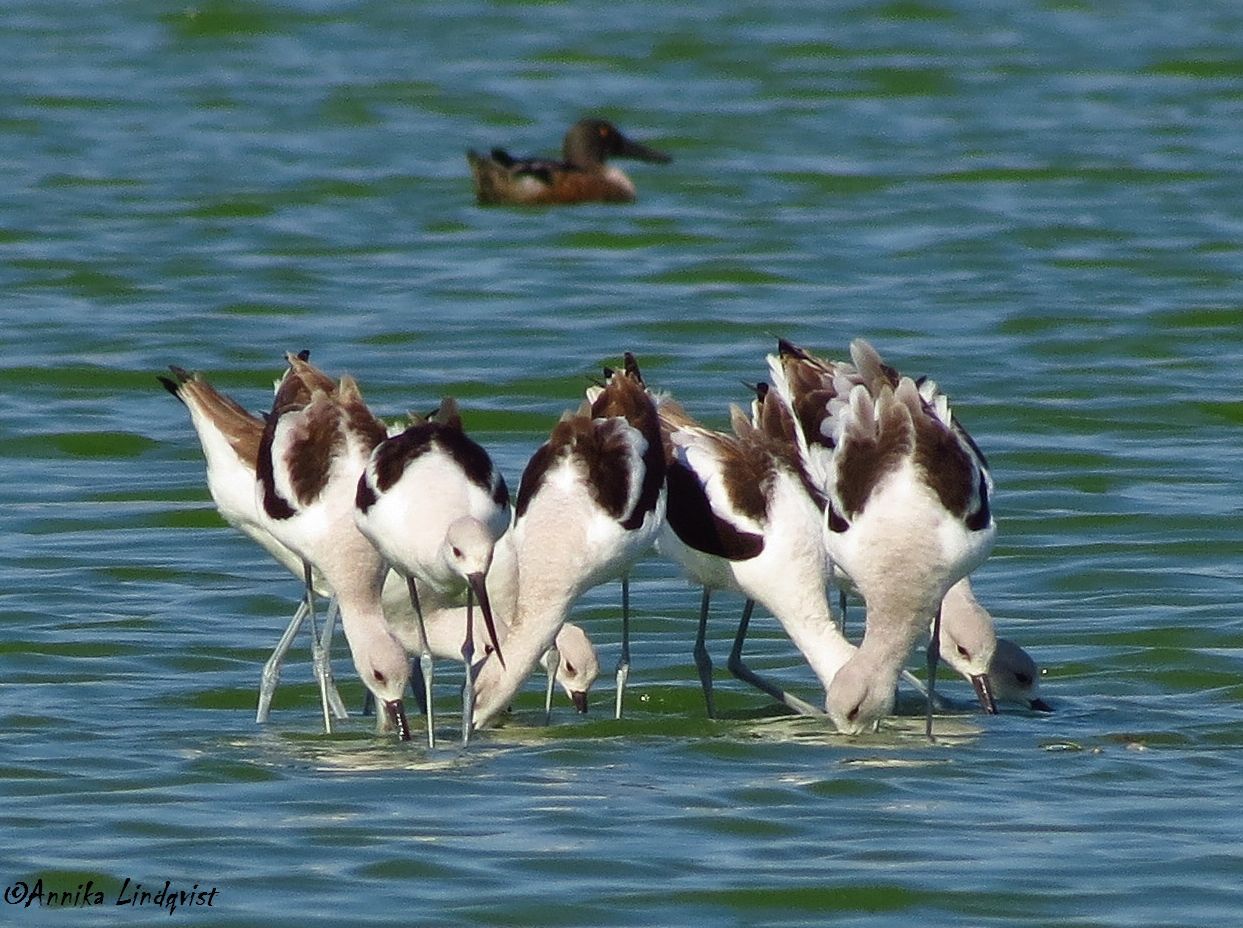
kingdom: Animalia
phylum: Chordata
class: Aves
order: Charadriiformes
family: Recurvirostridae
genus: Recurvirostra
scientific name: Recurvirostra americana
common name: American avocet
